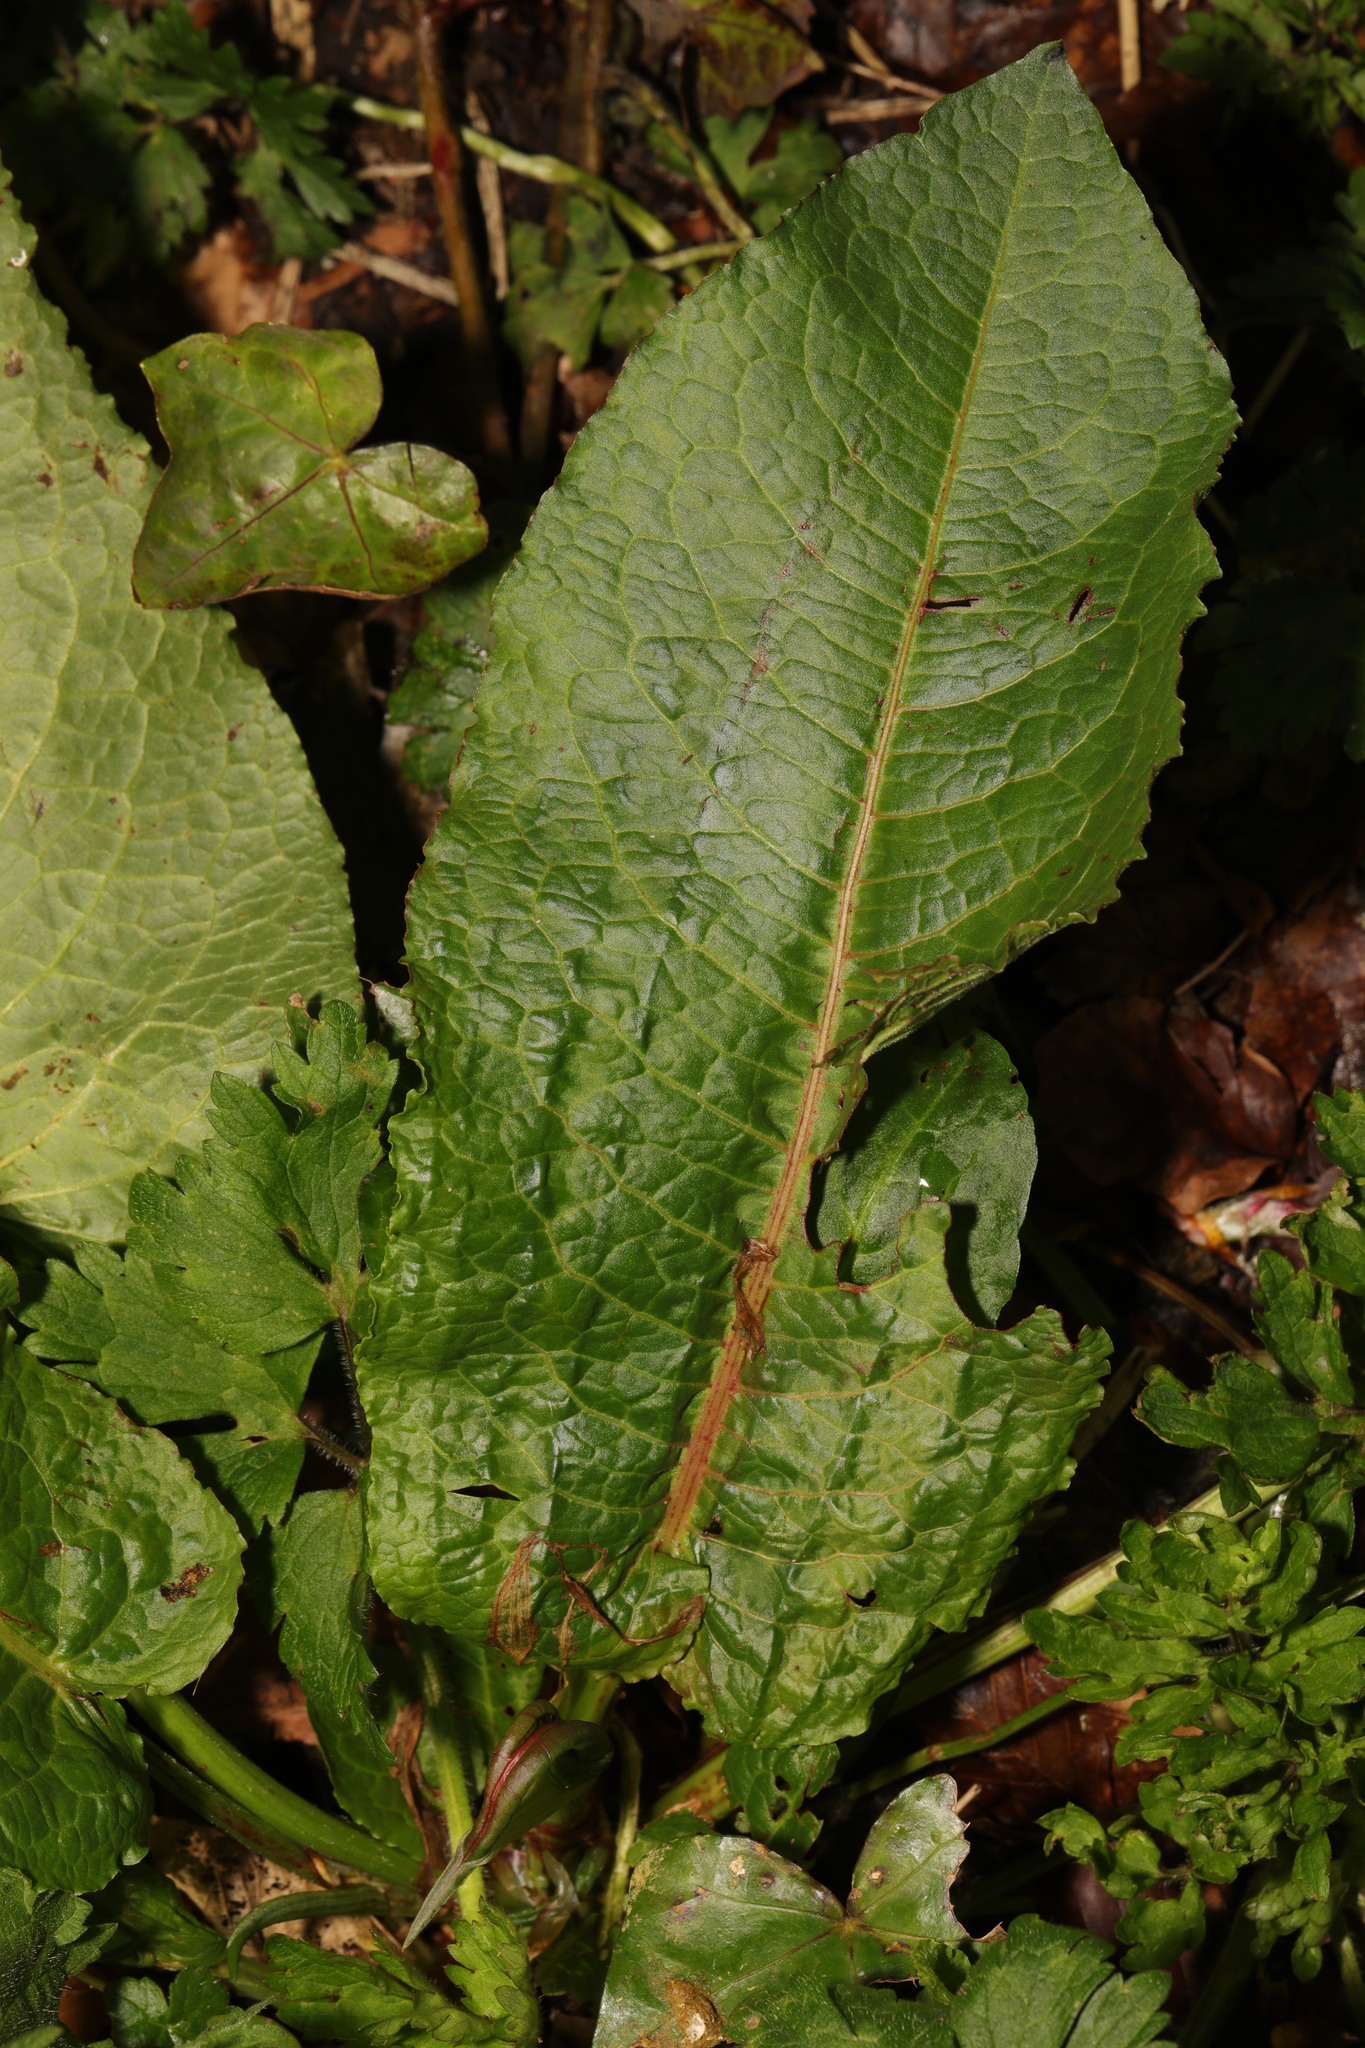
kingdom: Plantae
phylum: Tracheophyta
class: Magnoliopsida
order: Caryophyllales
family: Polygonaceae
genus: Rumex
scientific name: Rumex obtusifolius
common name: Bitter dock
